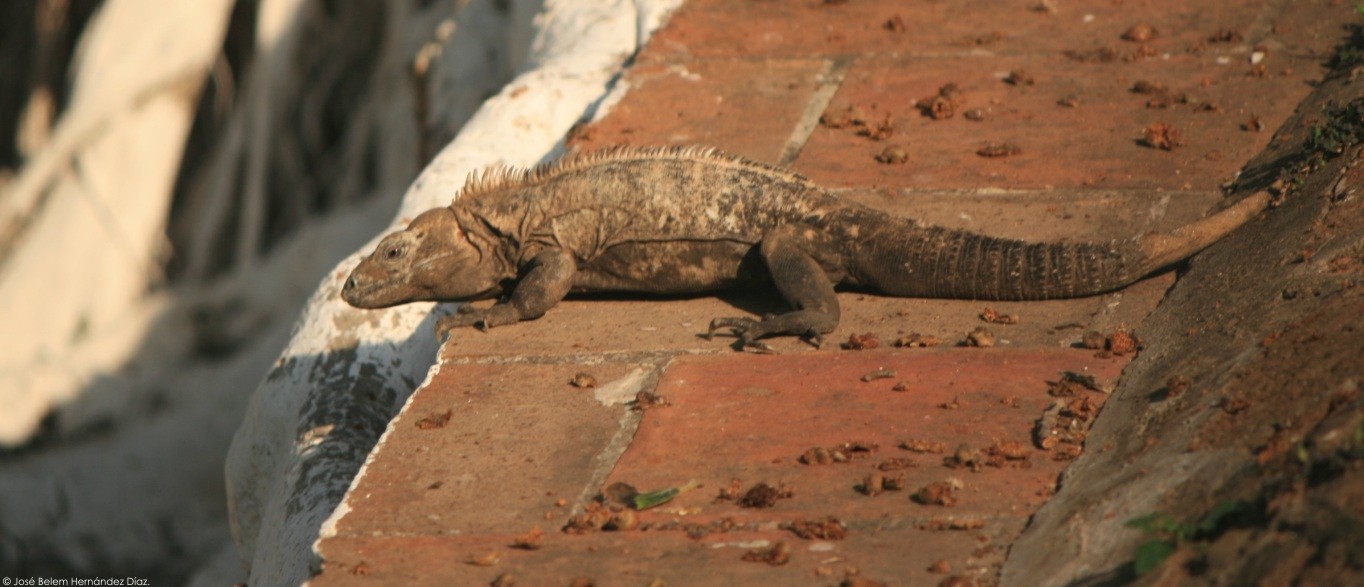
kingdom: Animalia
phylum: Chordata
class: Squamata
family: Iguanidae
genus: Ctenosaura
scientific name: Ctenosaura acanthura
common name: Northeastern spinytail iguana
